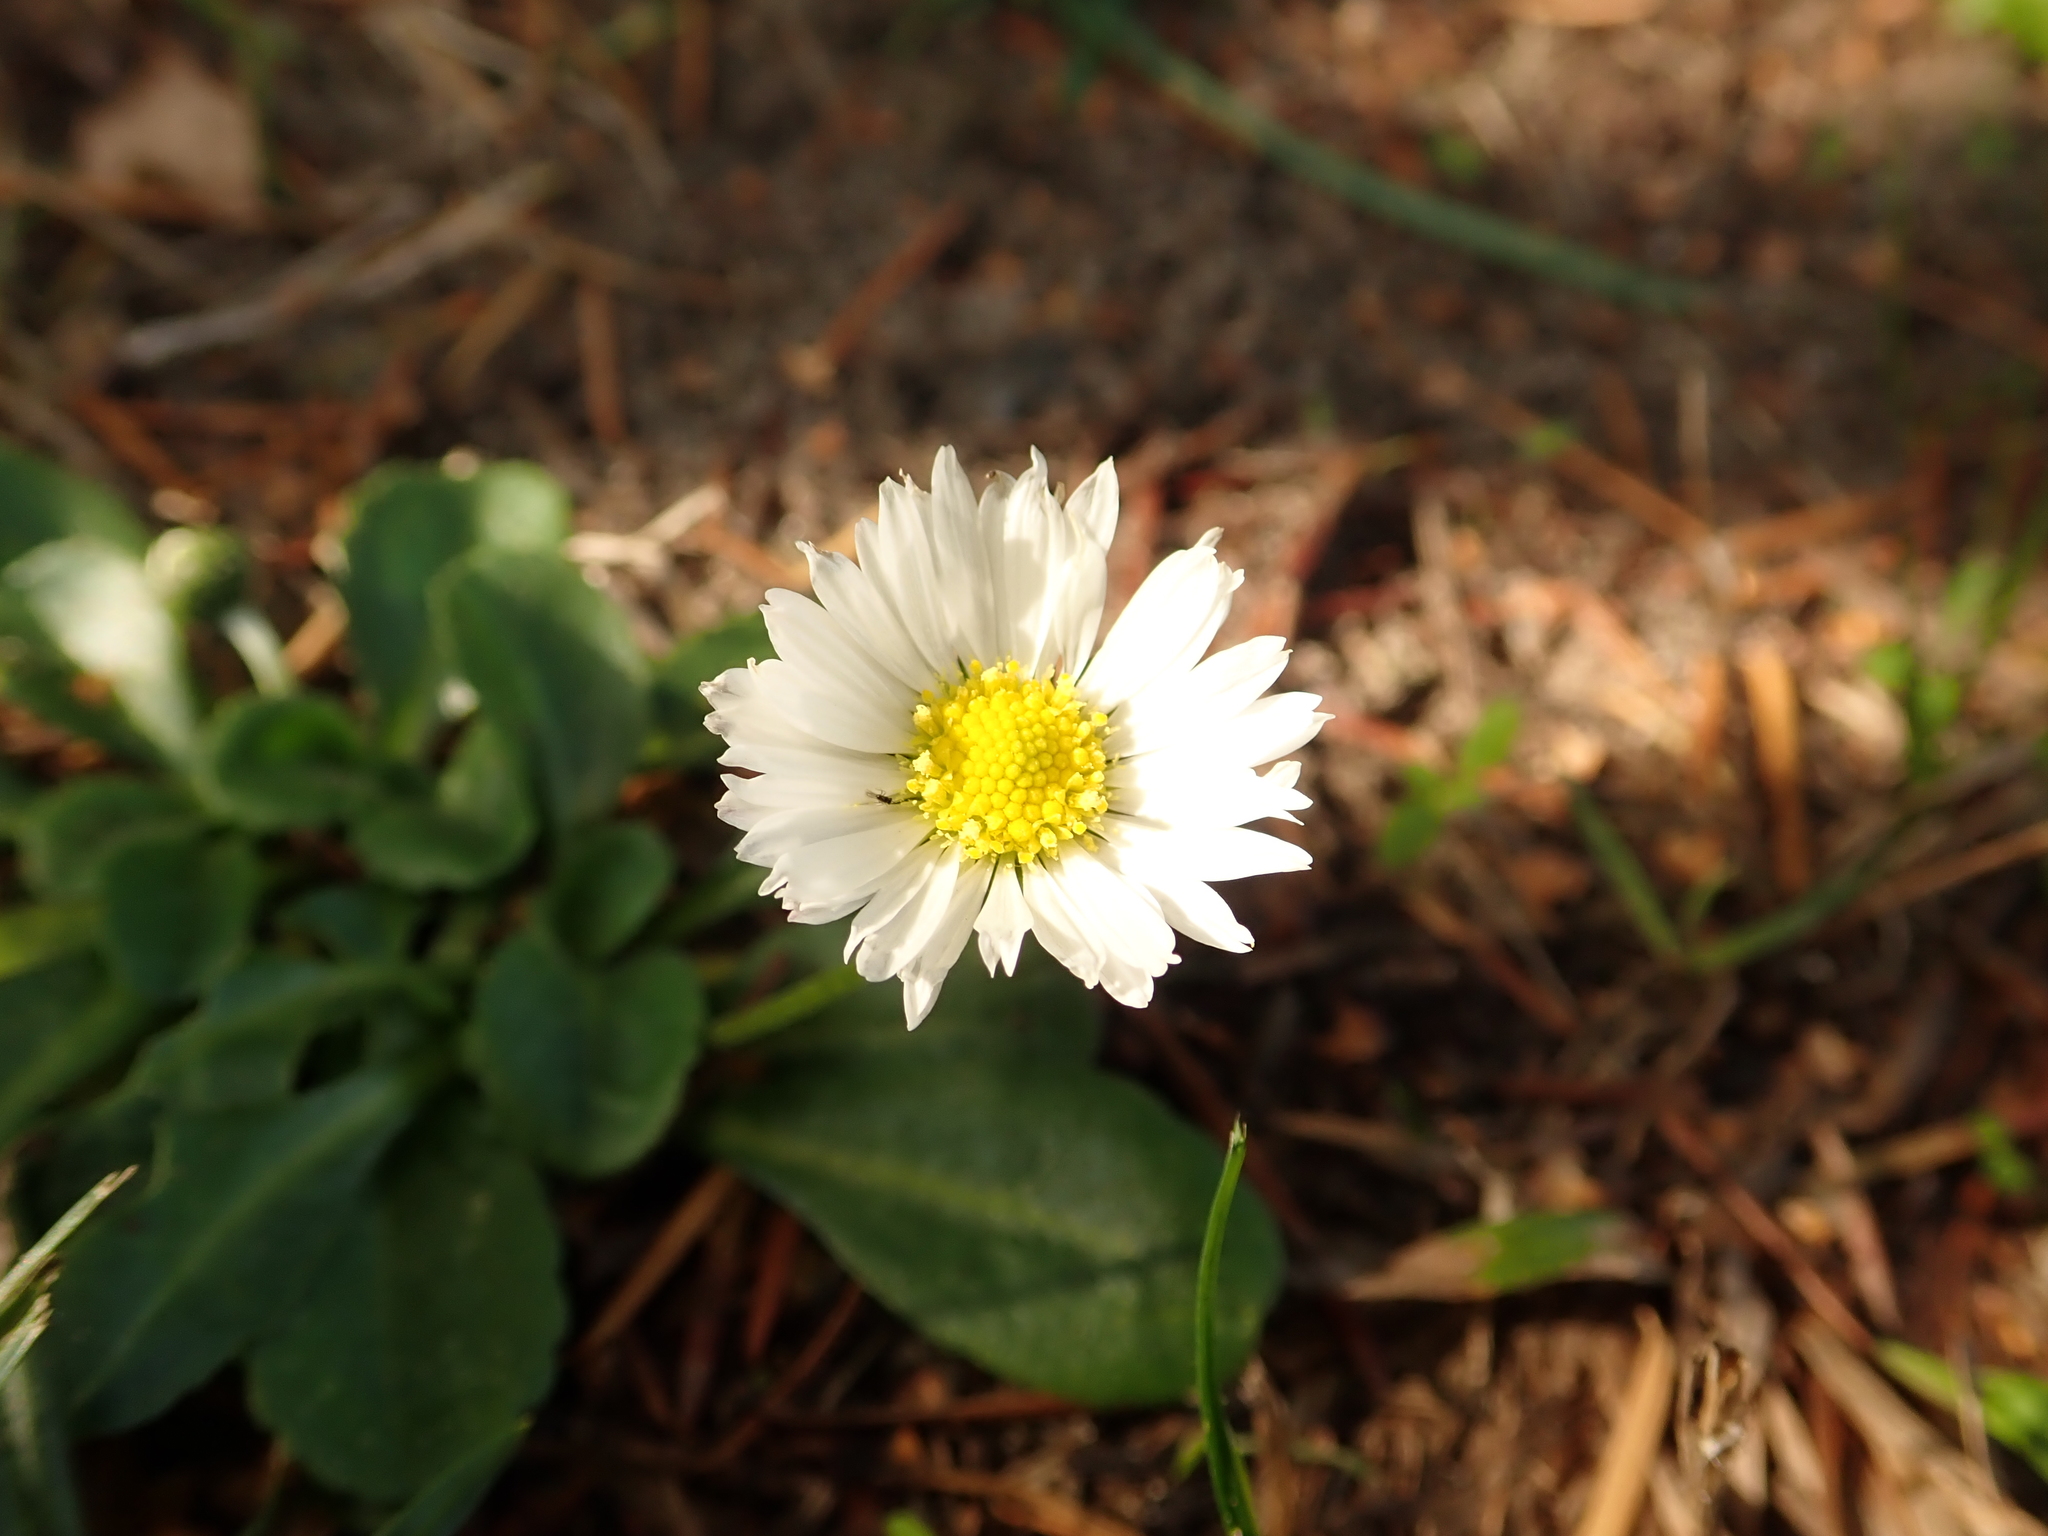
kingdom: Plantae
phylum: Tracheophyta
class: Magnoliopsida
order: Asterales
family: Asteraceae
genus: Bellis
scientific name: Bellis perennis
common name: Lawndaisy
